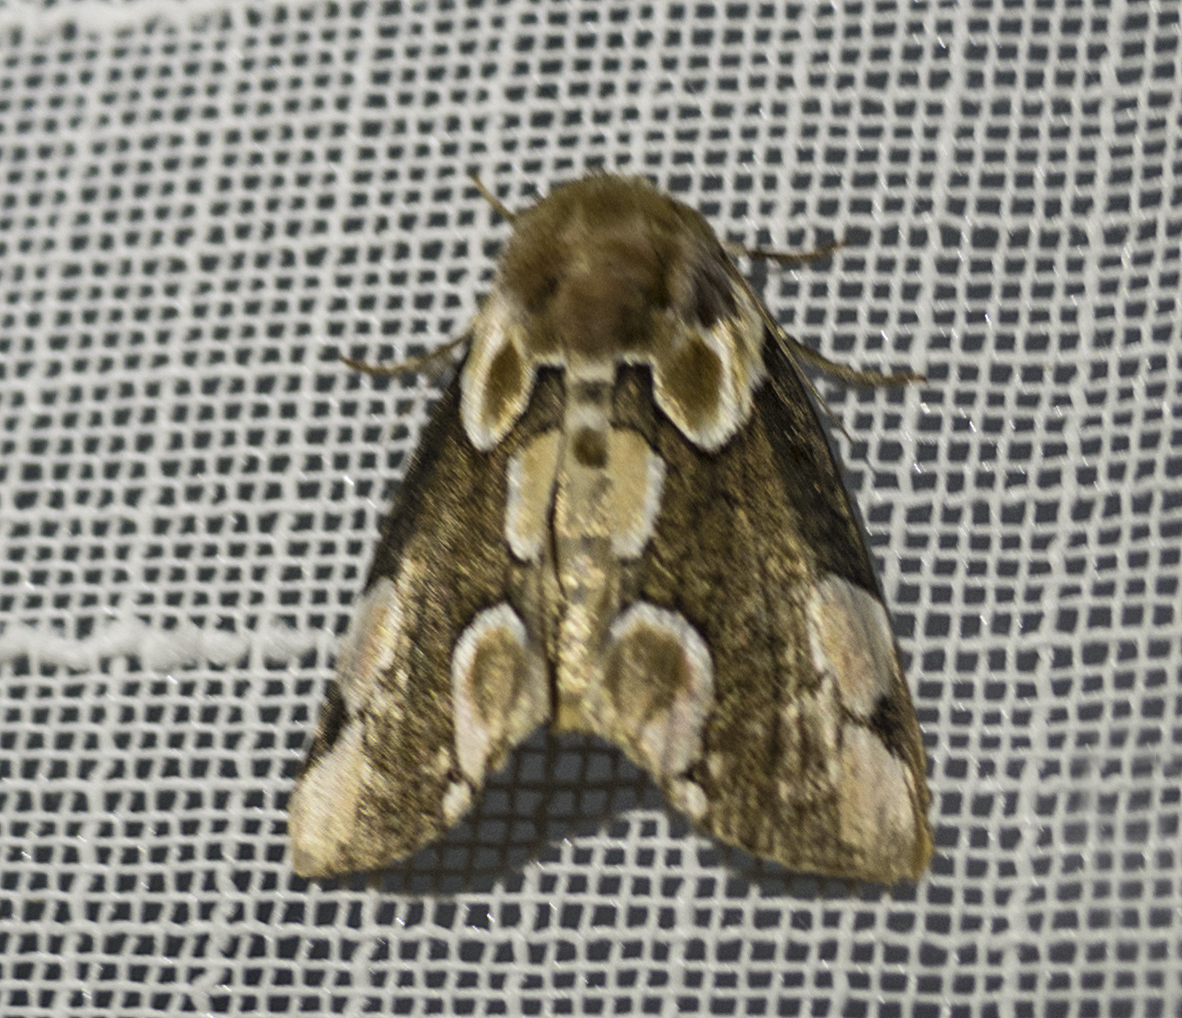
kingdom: Animalia
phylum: Arthropoda
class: Insecta
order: Lepidoptera
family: Drepanidae
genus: Thyatira
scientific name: Thyatira batis
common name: Peach blossom
